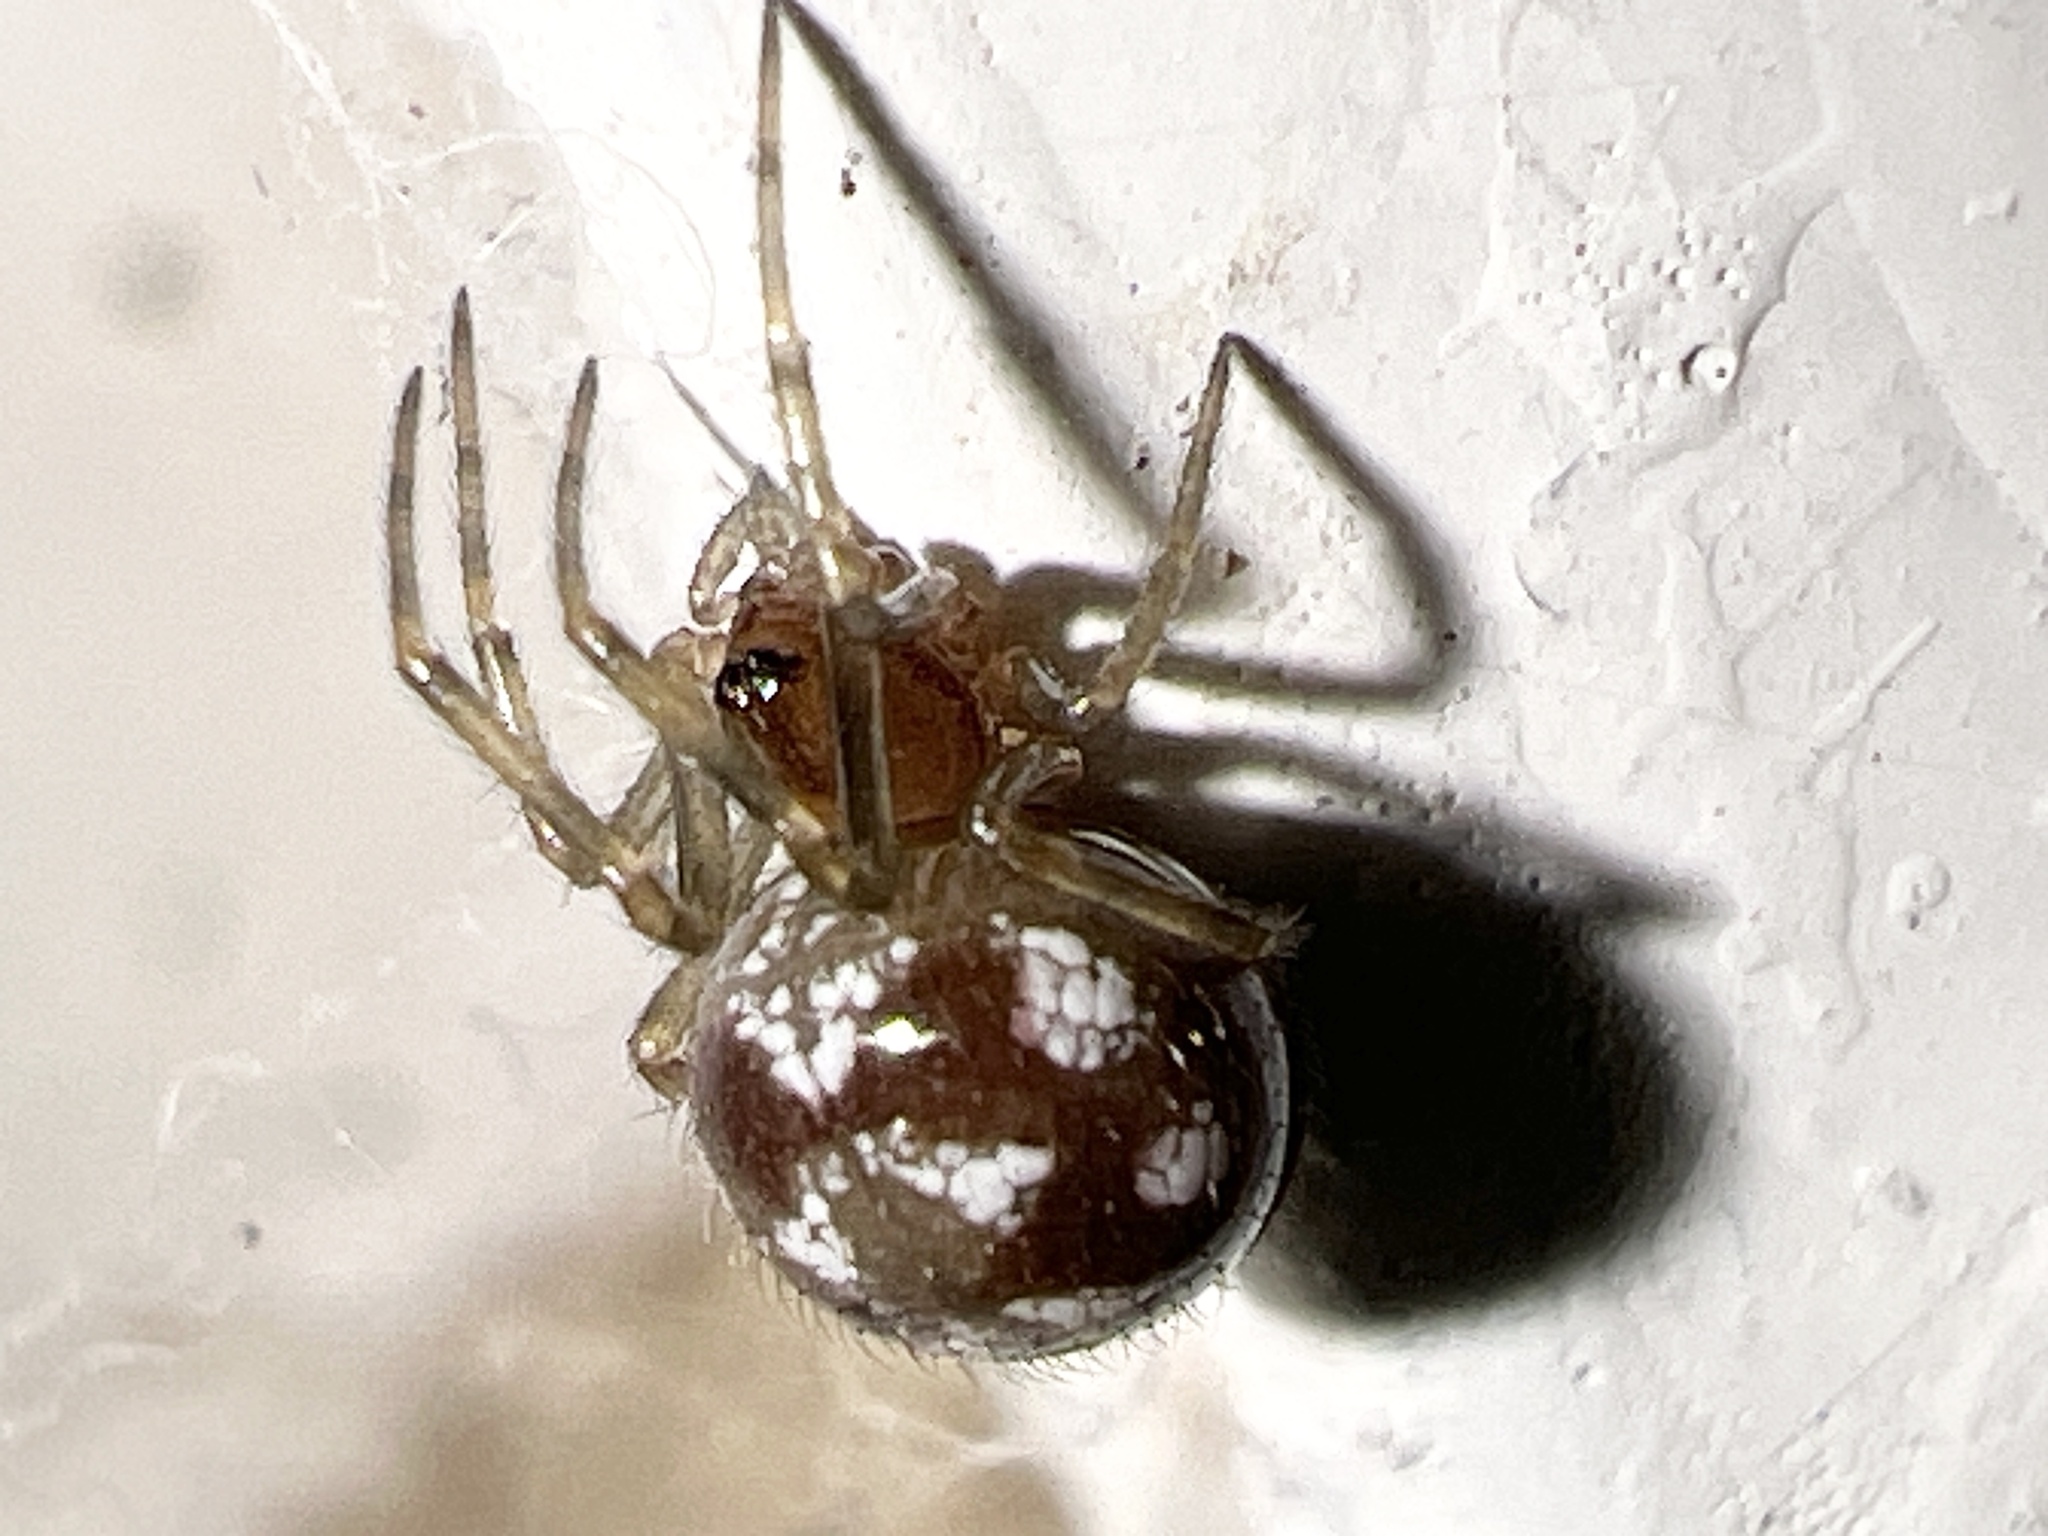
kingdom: Animalia
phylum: Arthropoda
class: Arachnida
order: Araneae
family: Theridiidae
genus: Steatoda
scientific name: Steatoda triangulosa
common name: Triangulate bud spider
